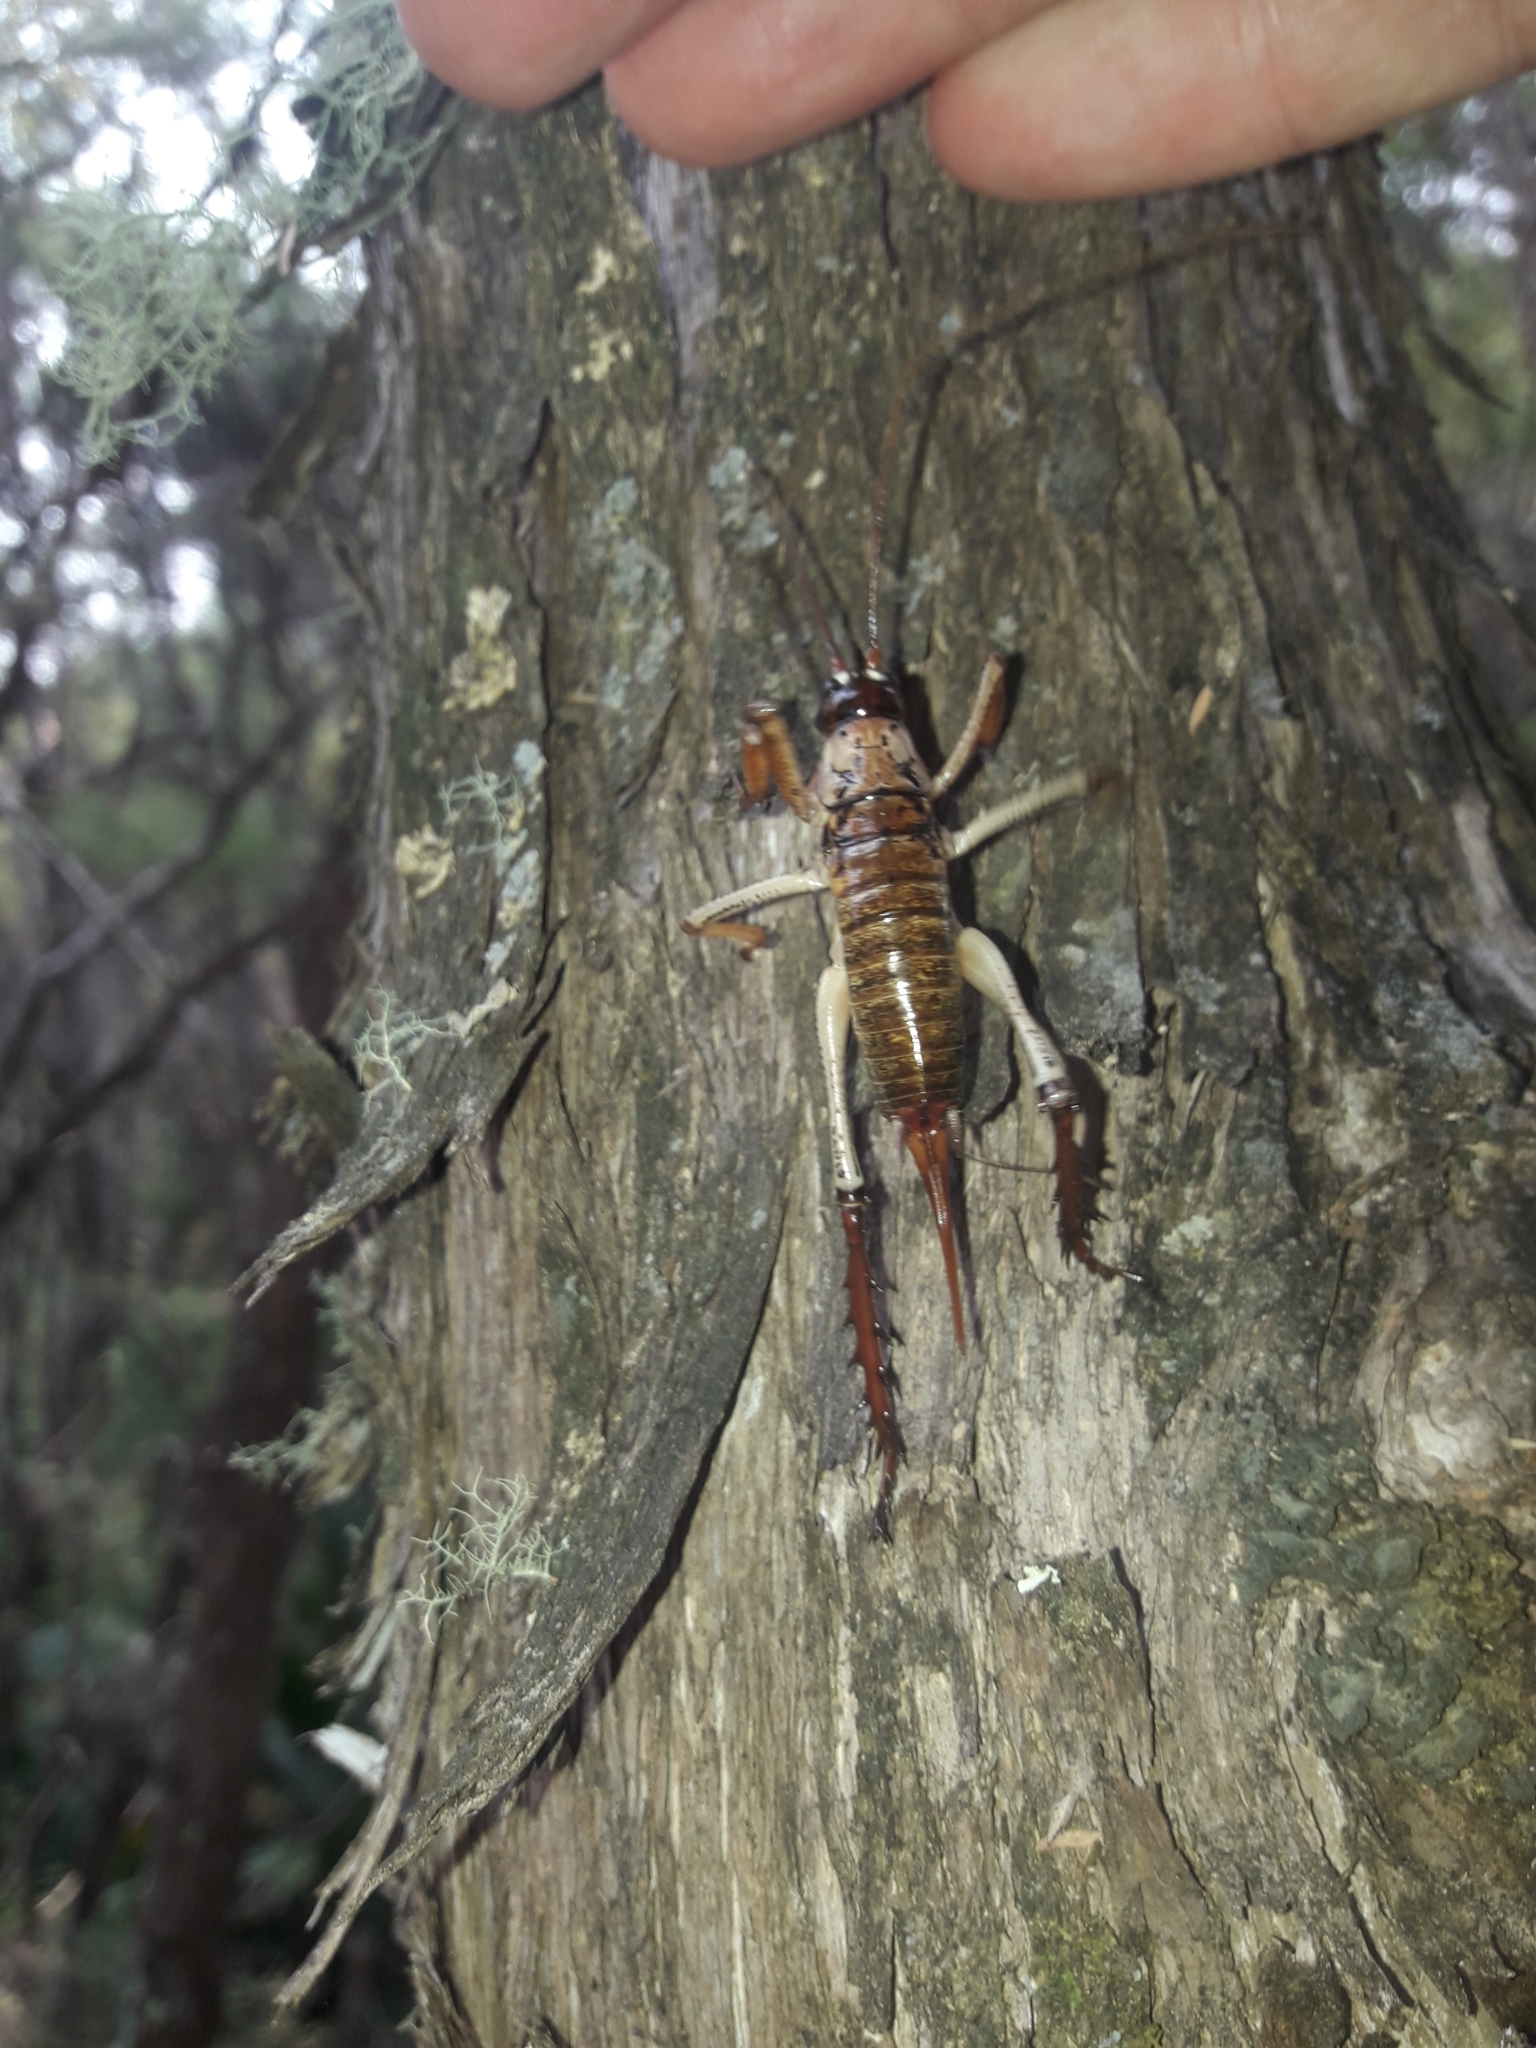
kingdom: Animalia
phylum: Arthropoda
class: Insecta
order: Orthoptera
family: Anostostomatidae
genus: Hemideina
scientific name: Hemideina thoracica
